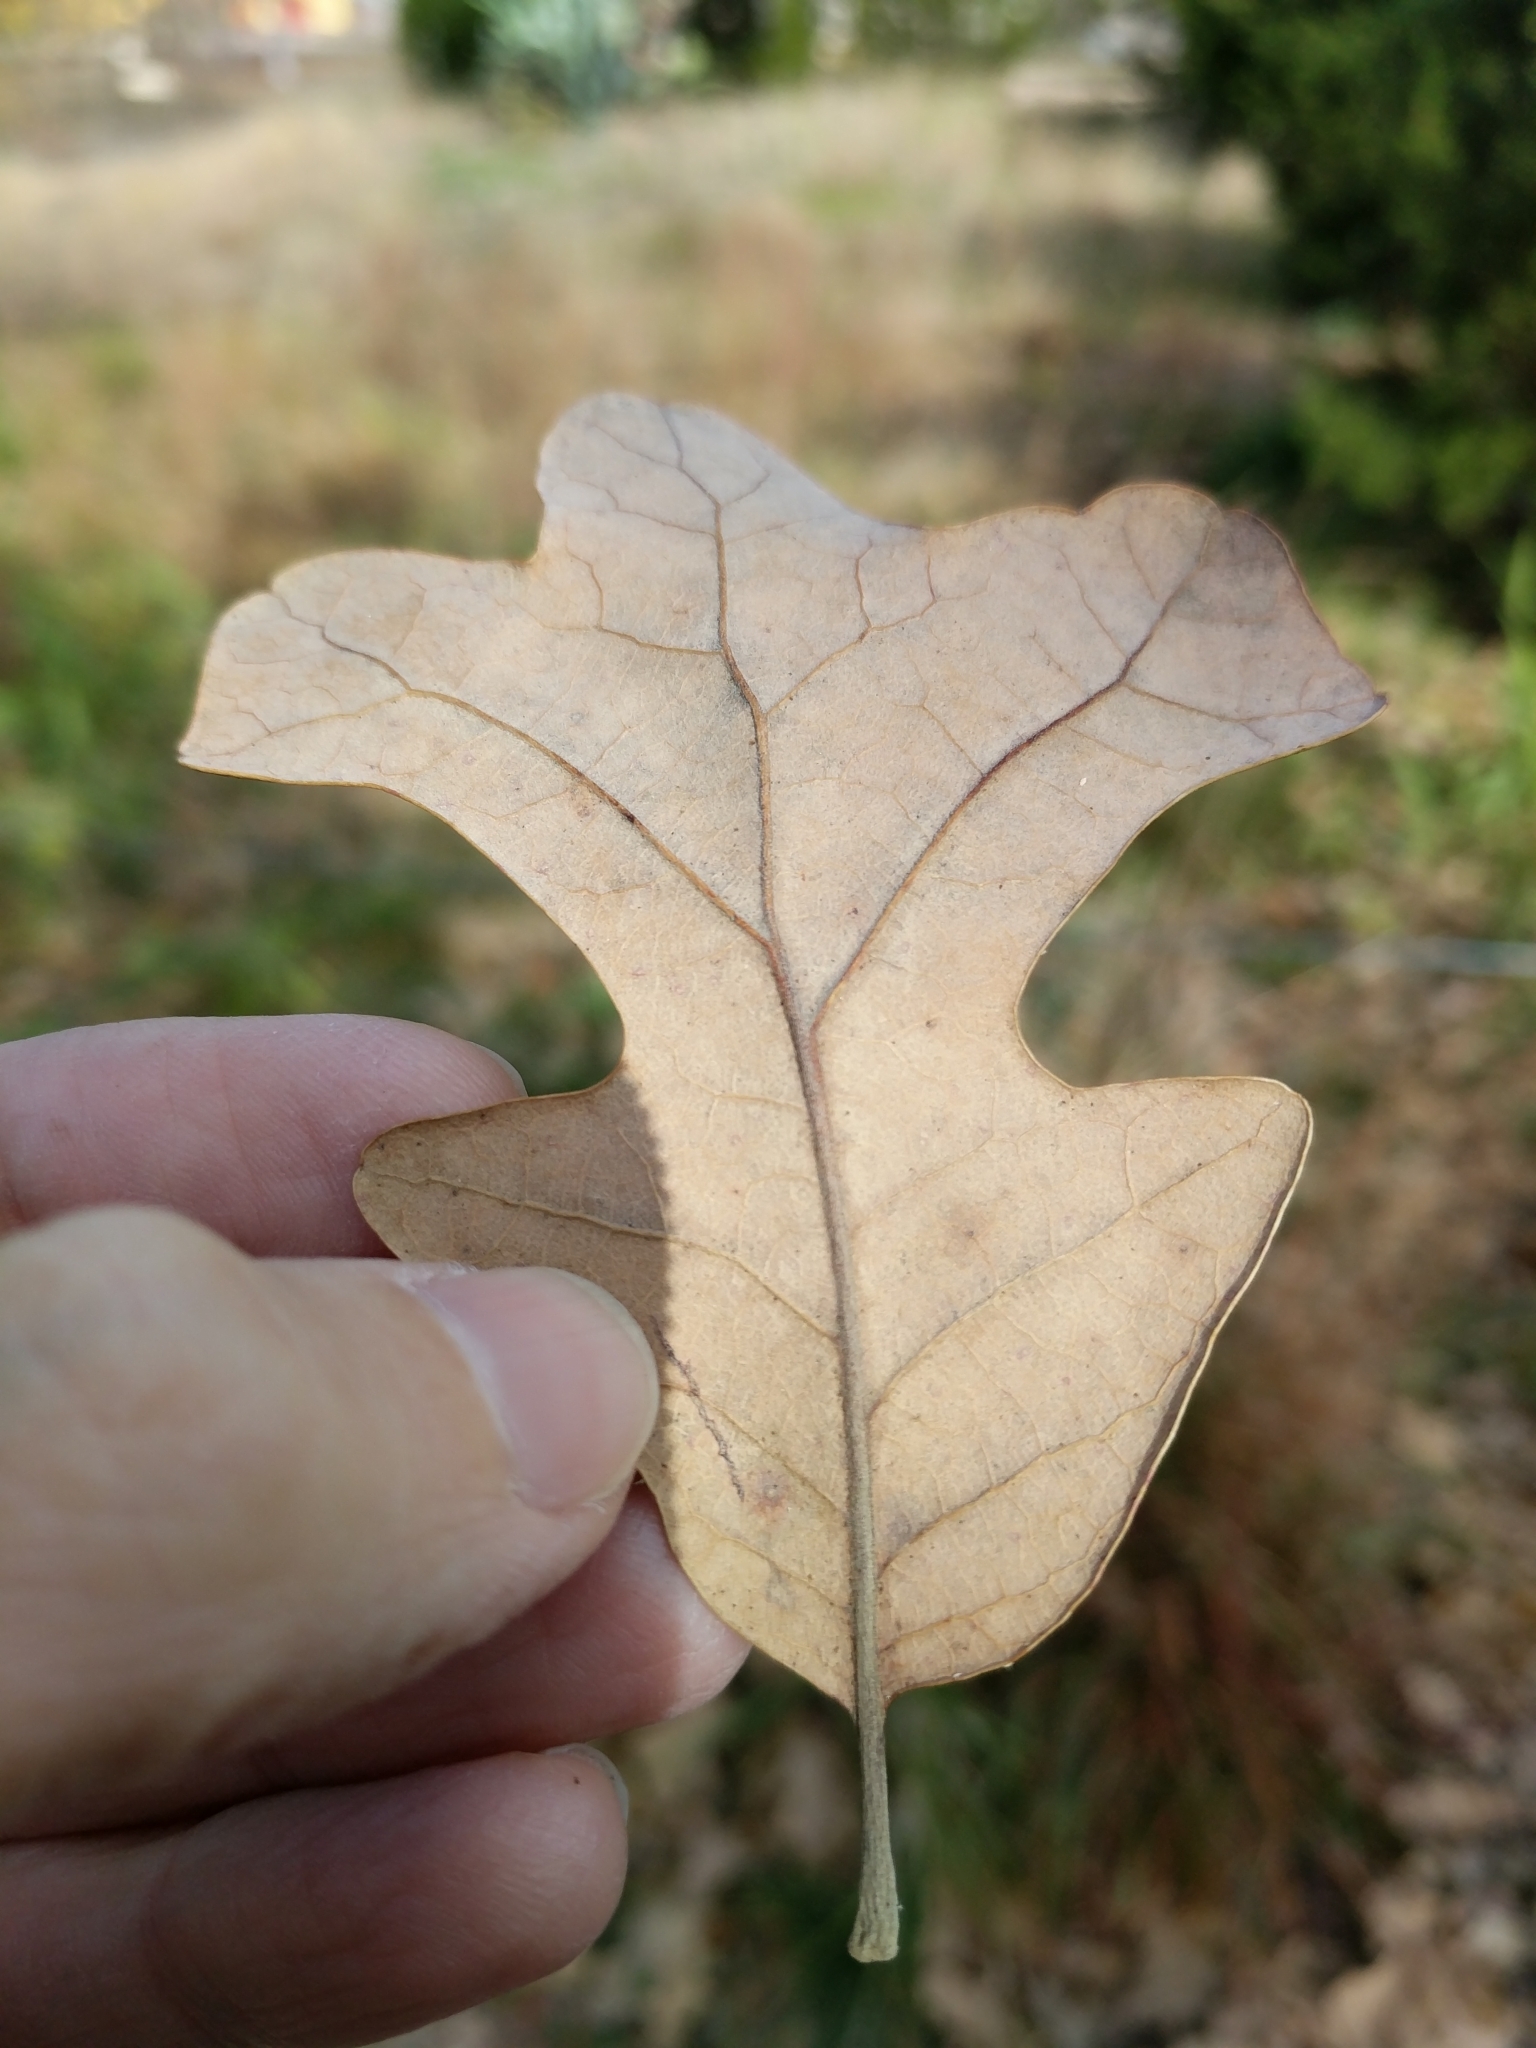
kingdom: Plantae
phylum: Tracheophyta
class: Magnoliopsida
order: Fagales
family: Fagaceae
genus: Quercus
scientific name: Quercus stellata
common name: Post oak
